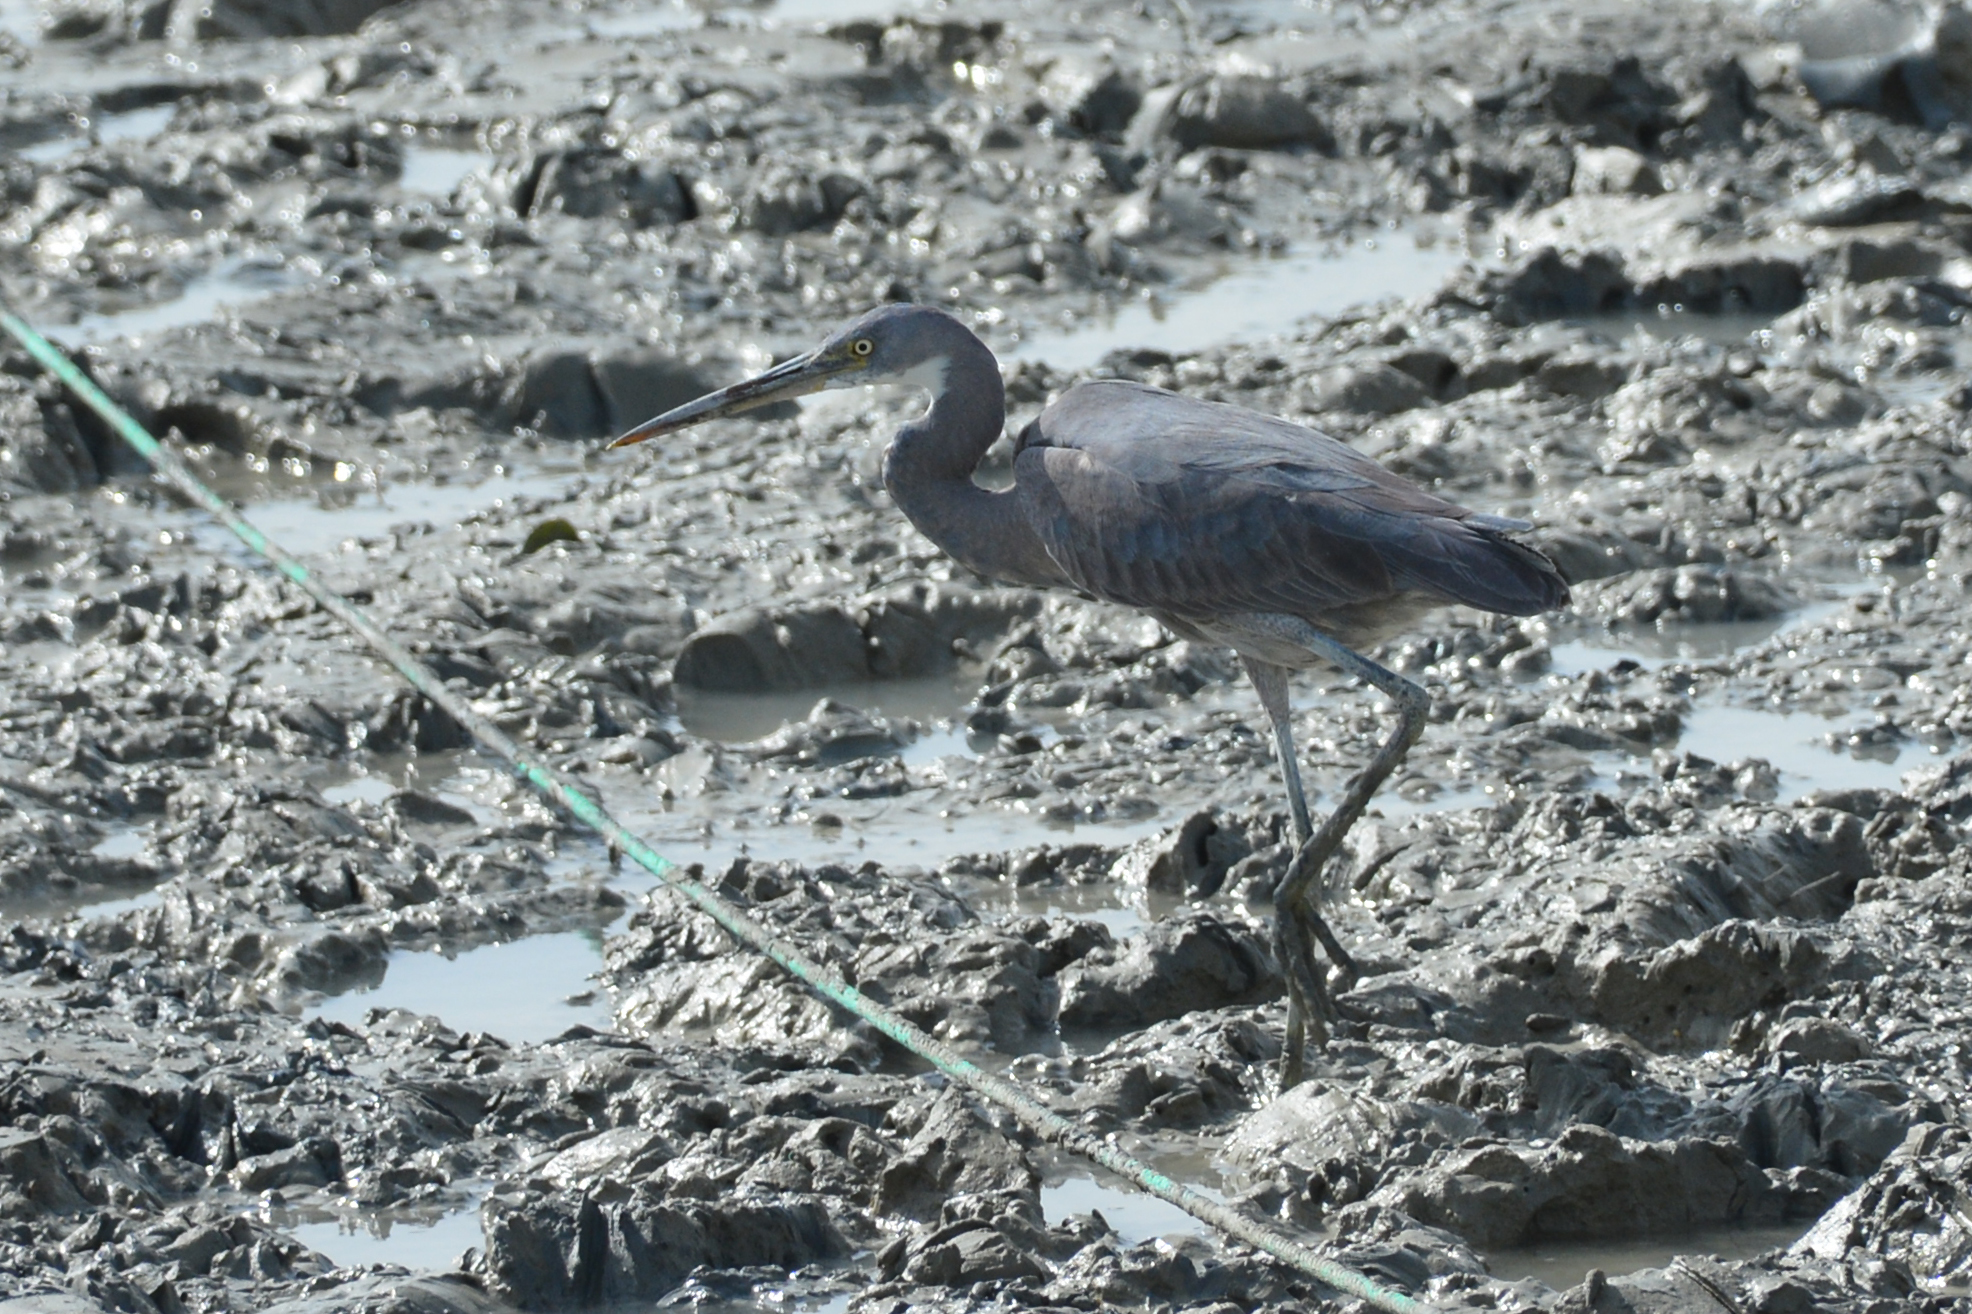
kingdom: Animalia
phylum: Chordata
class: Aves
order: Pelecaniformes
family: Ardeidae
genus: Egretta
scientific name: Egretta gularis
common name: Western reef-heron
